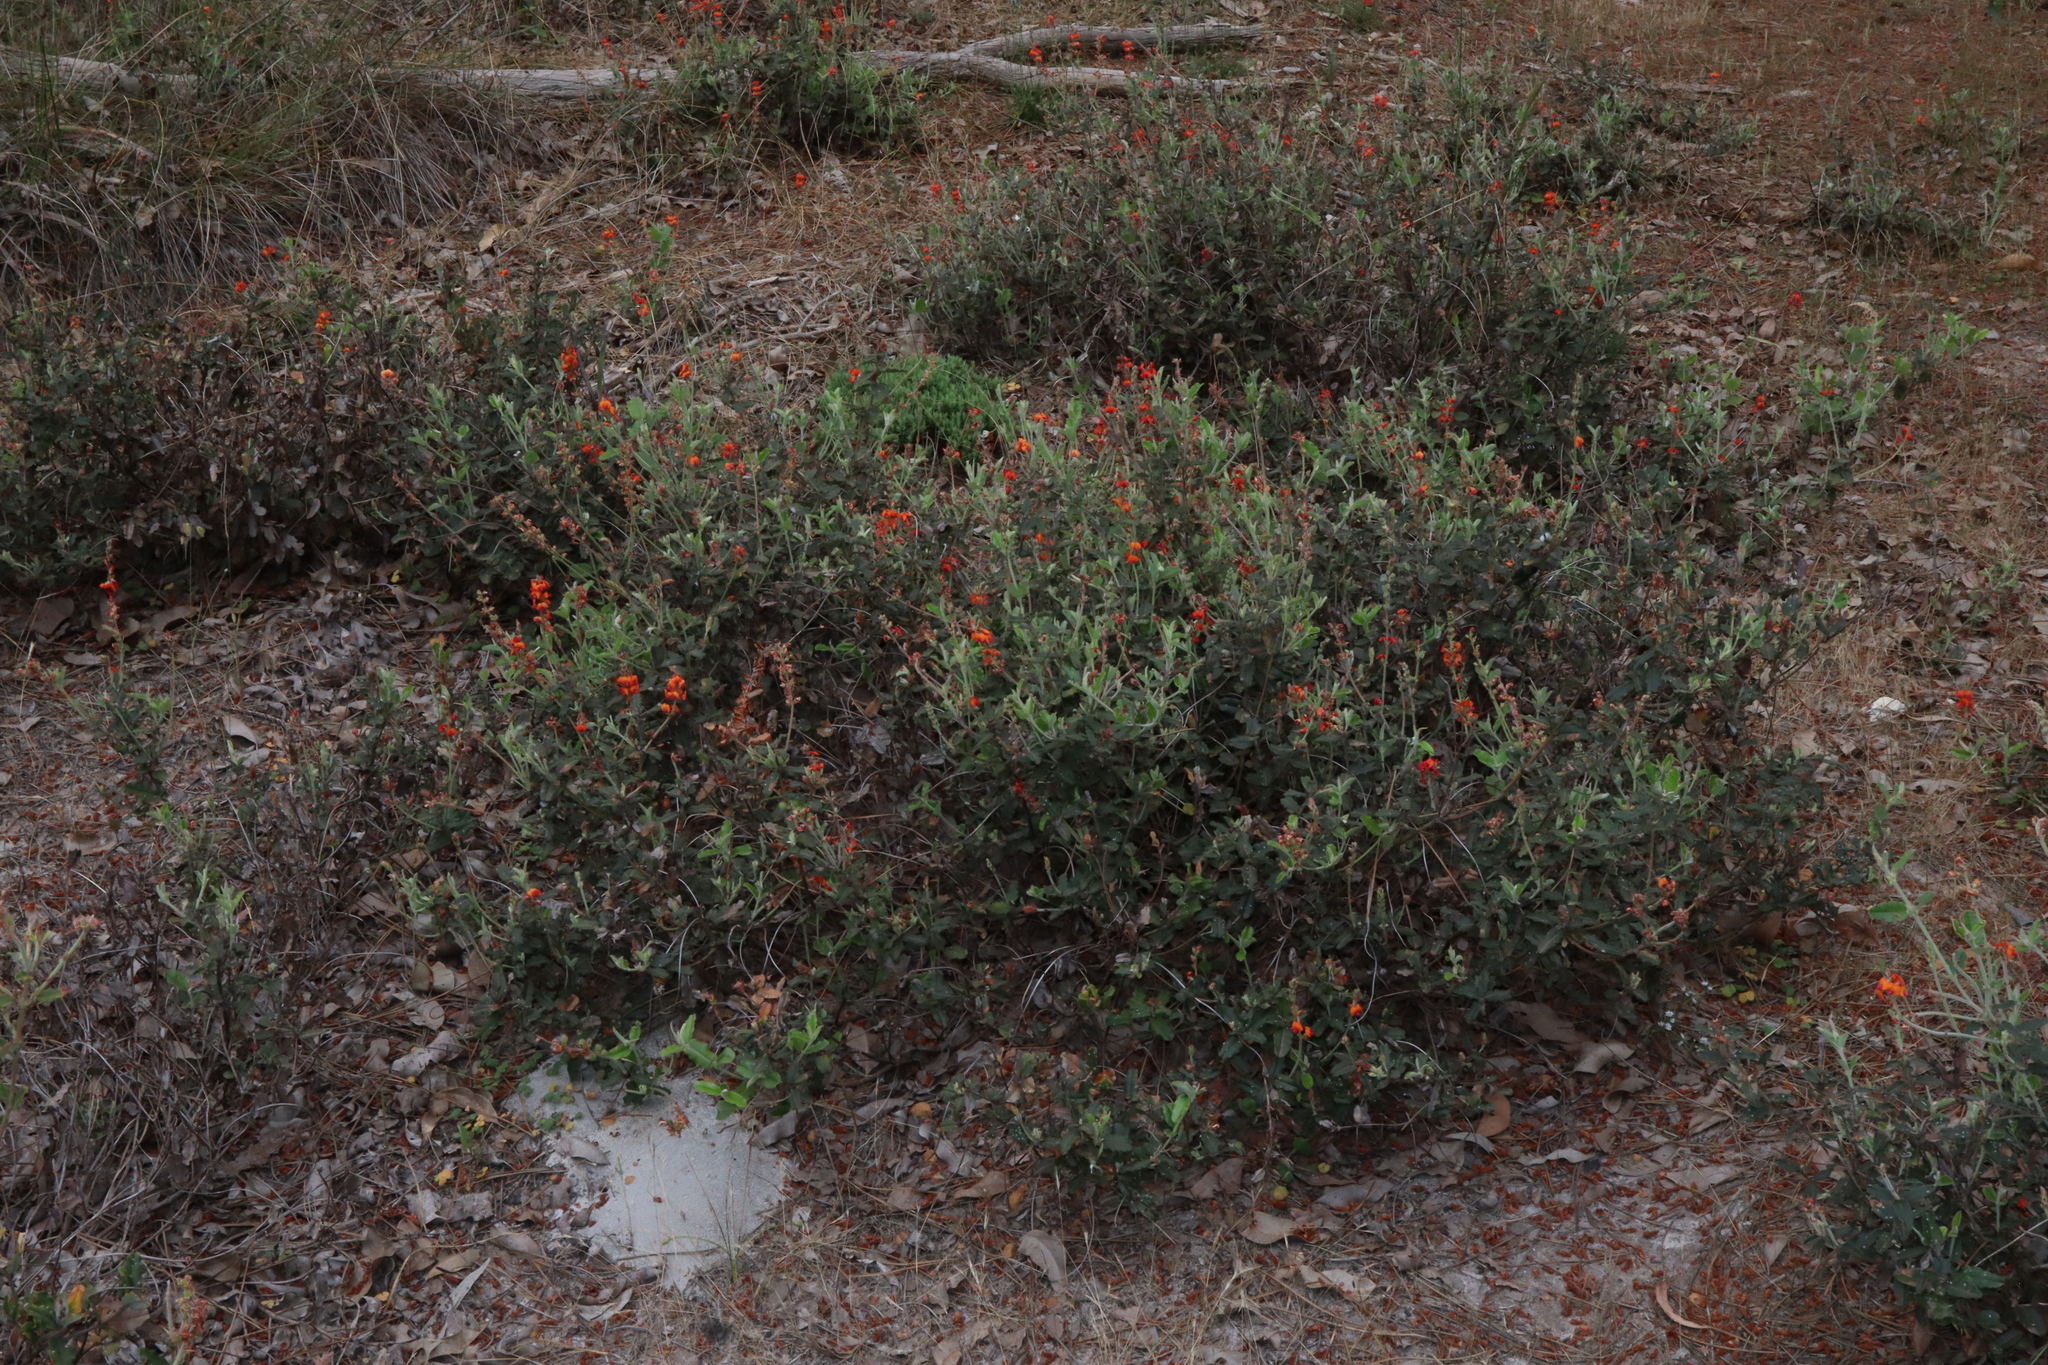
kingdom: Plantae
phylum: Tracheophyta
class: Magnoliopsida
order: Fabales
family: Fabaceae
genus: Gastrolobium
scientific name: Gastrolobium villosum
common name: Crinkle-leaf poison
